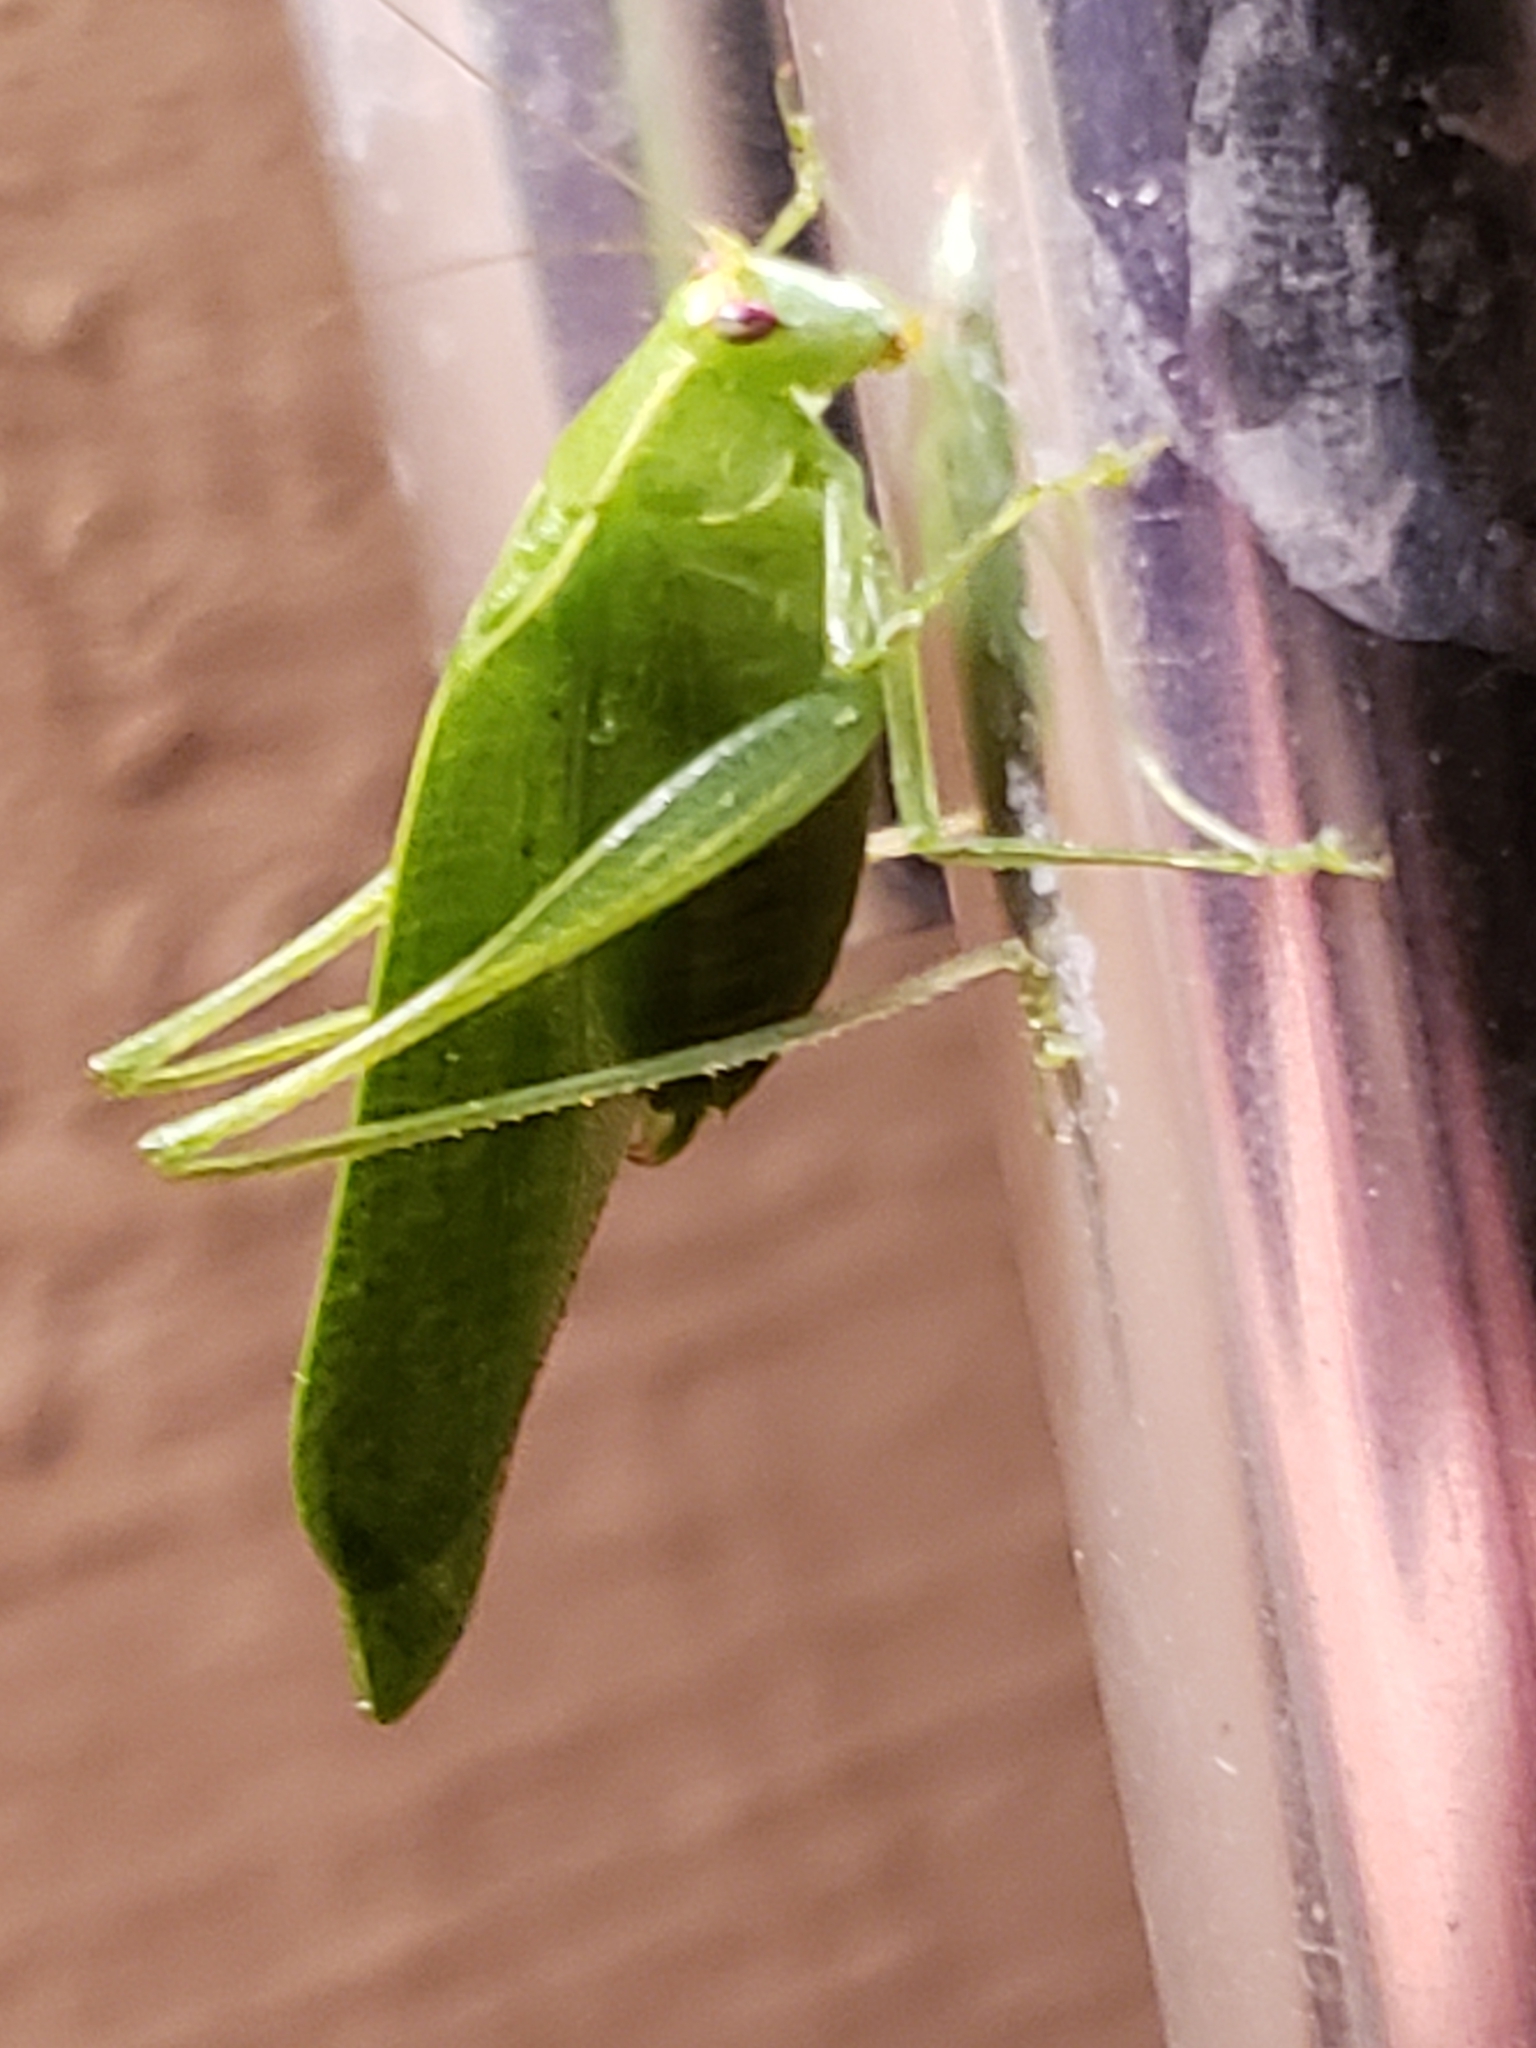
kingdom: Animalia
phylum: Arthropoda
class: Insecta
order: Orthoptera
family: Tettigoniidae
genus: Montezumina
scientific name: Montezumina modesta
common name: Modest katydid
